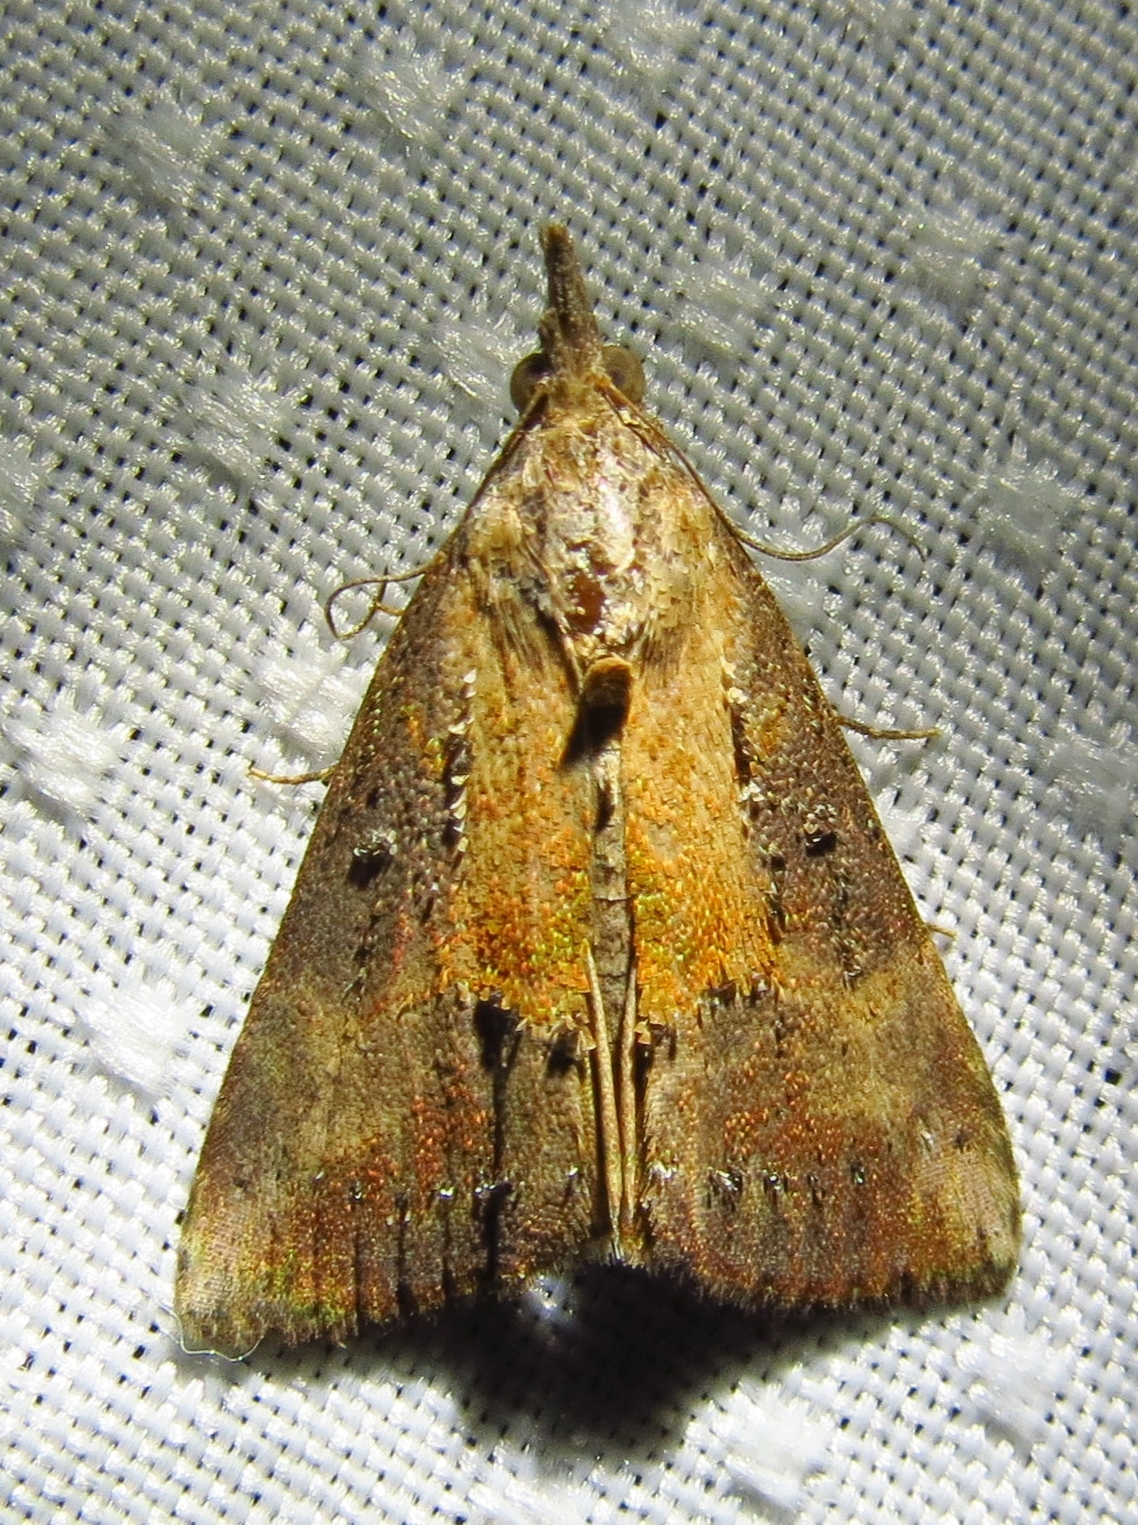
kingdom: Animalia
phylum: Arthropoda
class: Insecta
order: Lepidoptera
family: Erebidae
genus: Hypena
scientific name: Hypena scabra
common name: Green cloverworm
